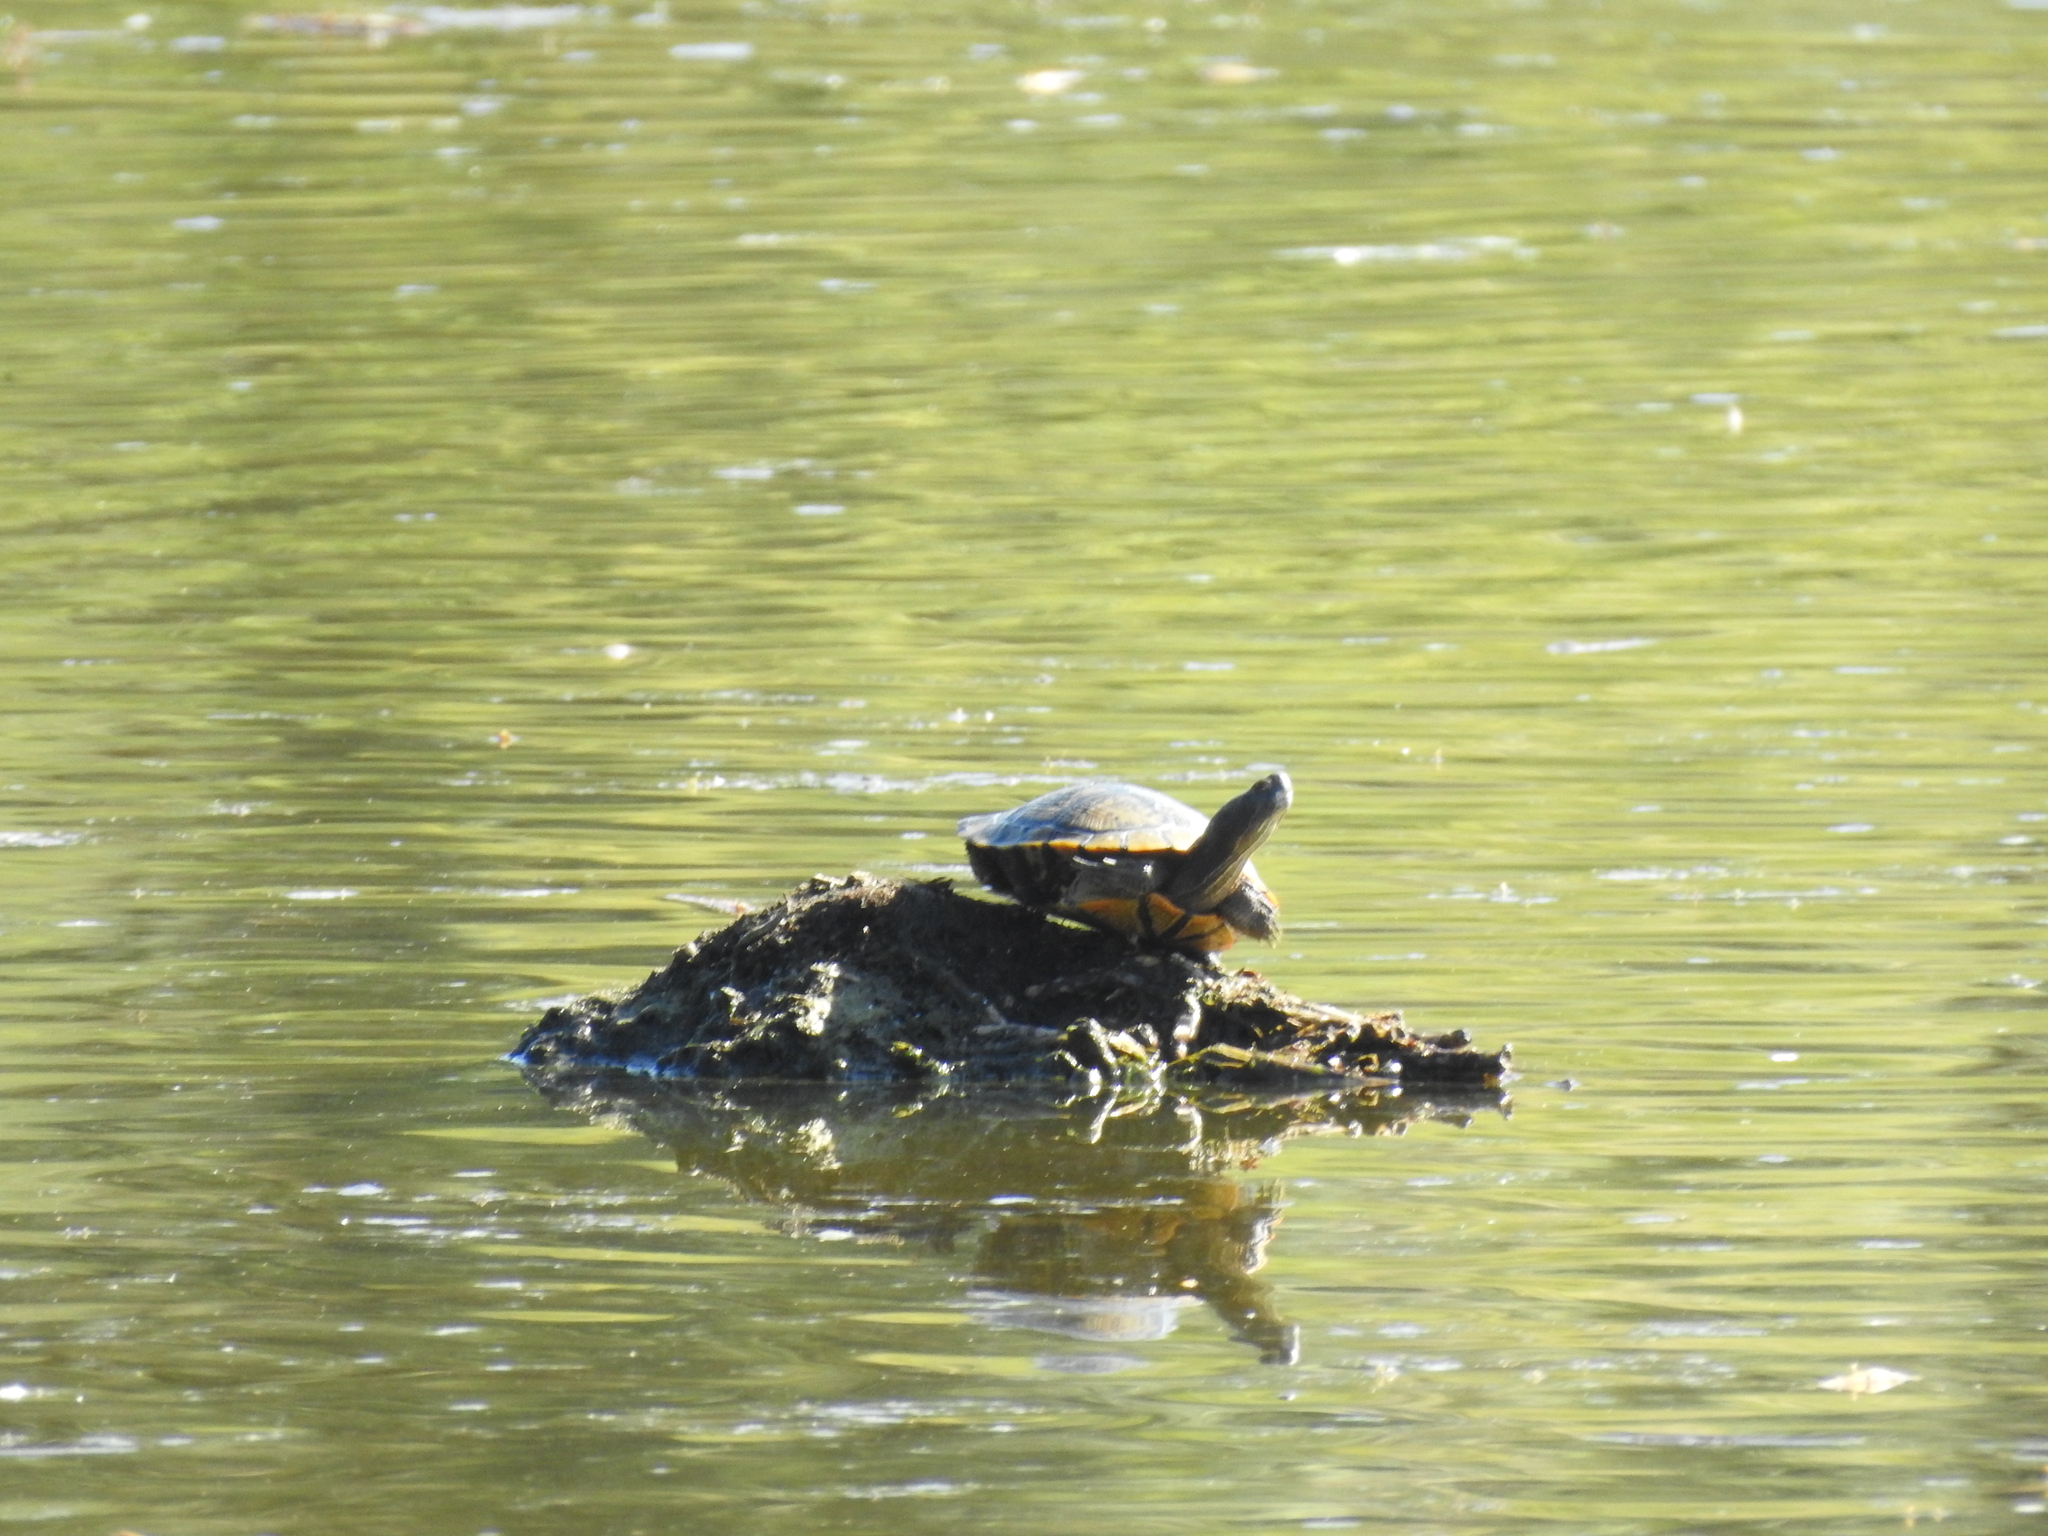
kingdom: Animalia
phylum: Chordata
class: Testudines
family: Emydidae
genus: Trachemys
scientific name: Trachemys scripta
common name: Slider
